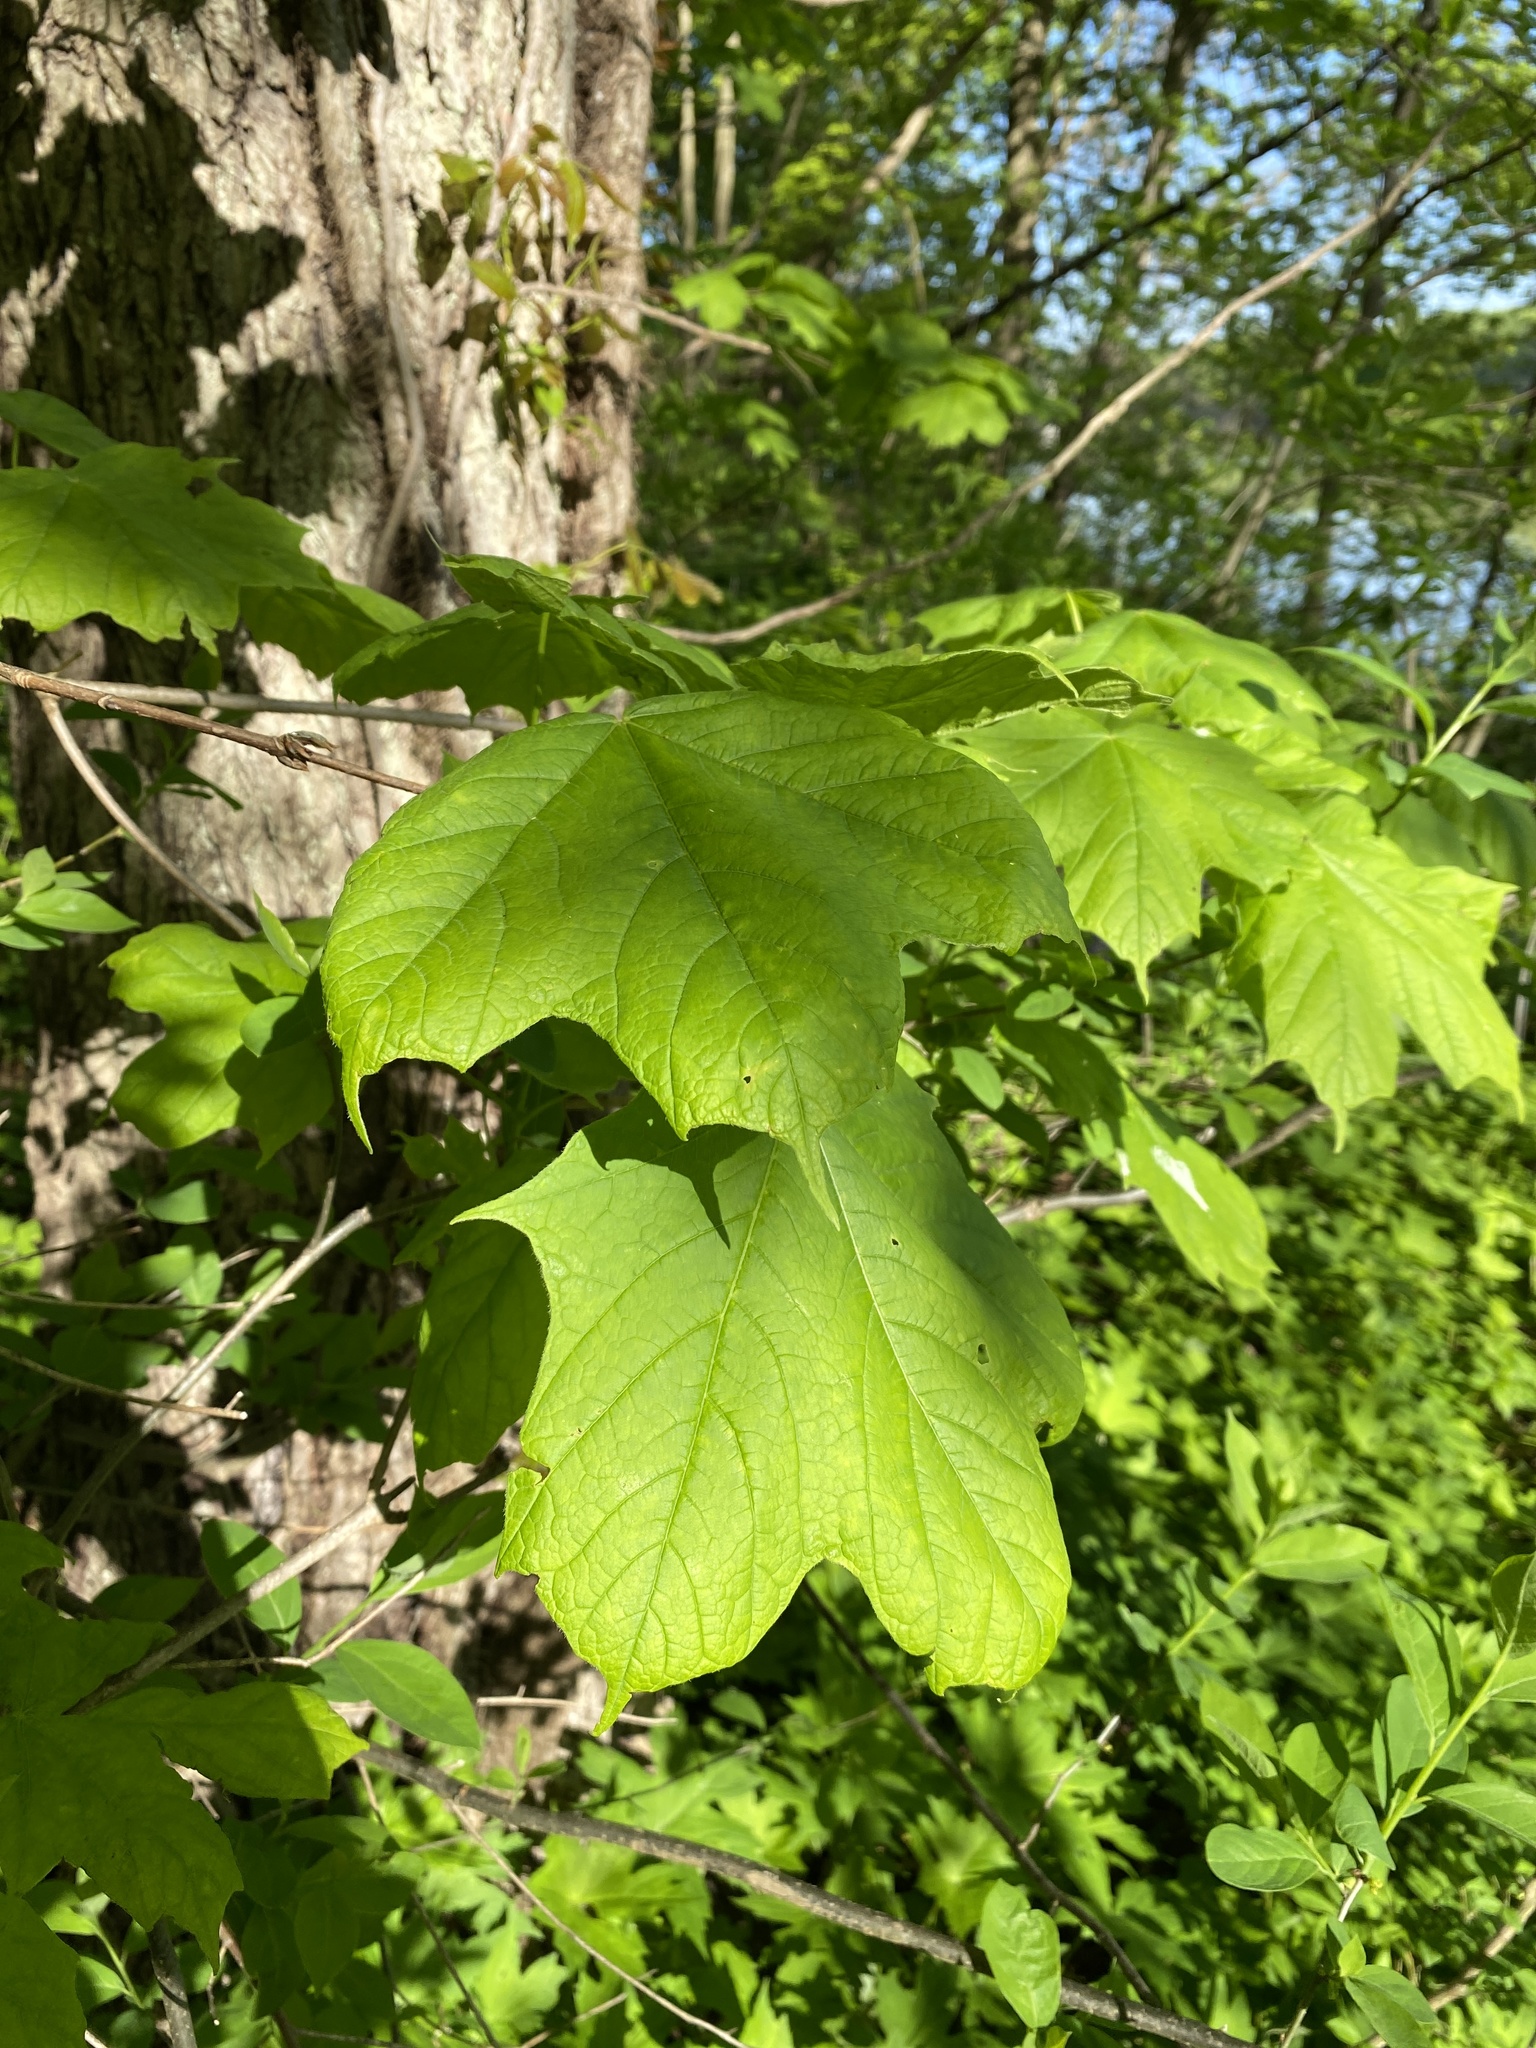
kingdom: Plantae
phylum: Tracheophyta
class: Magnoliopsida
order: Sapindales
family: Sapindaceae
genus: Acer
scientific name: Acer nigrum
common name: Black maple
